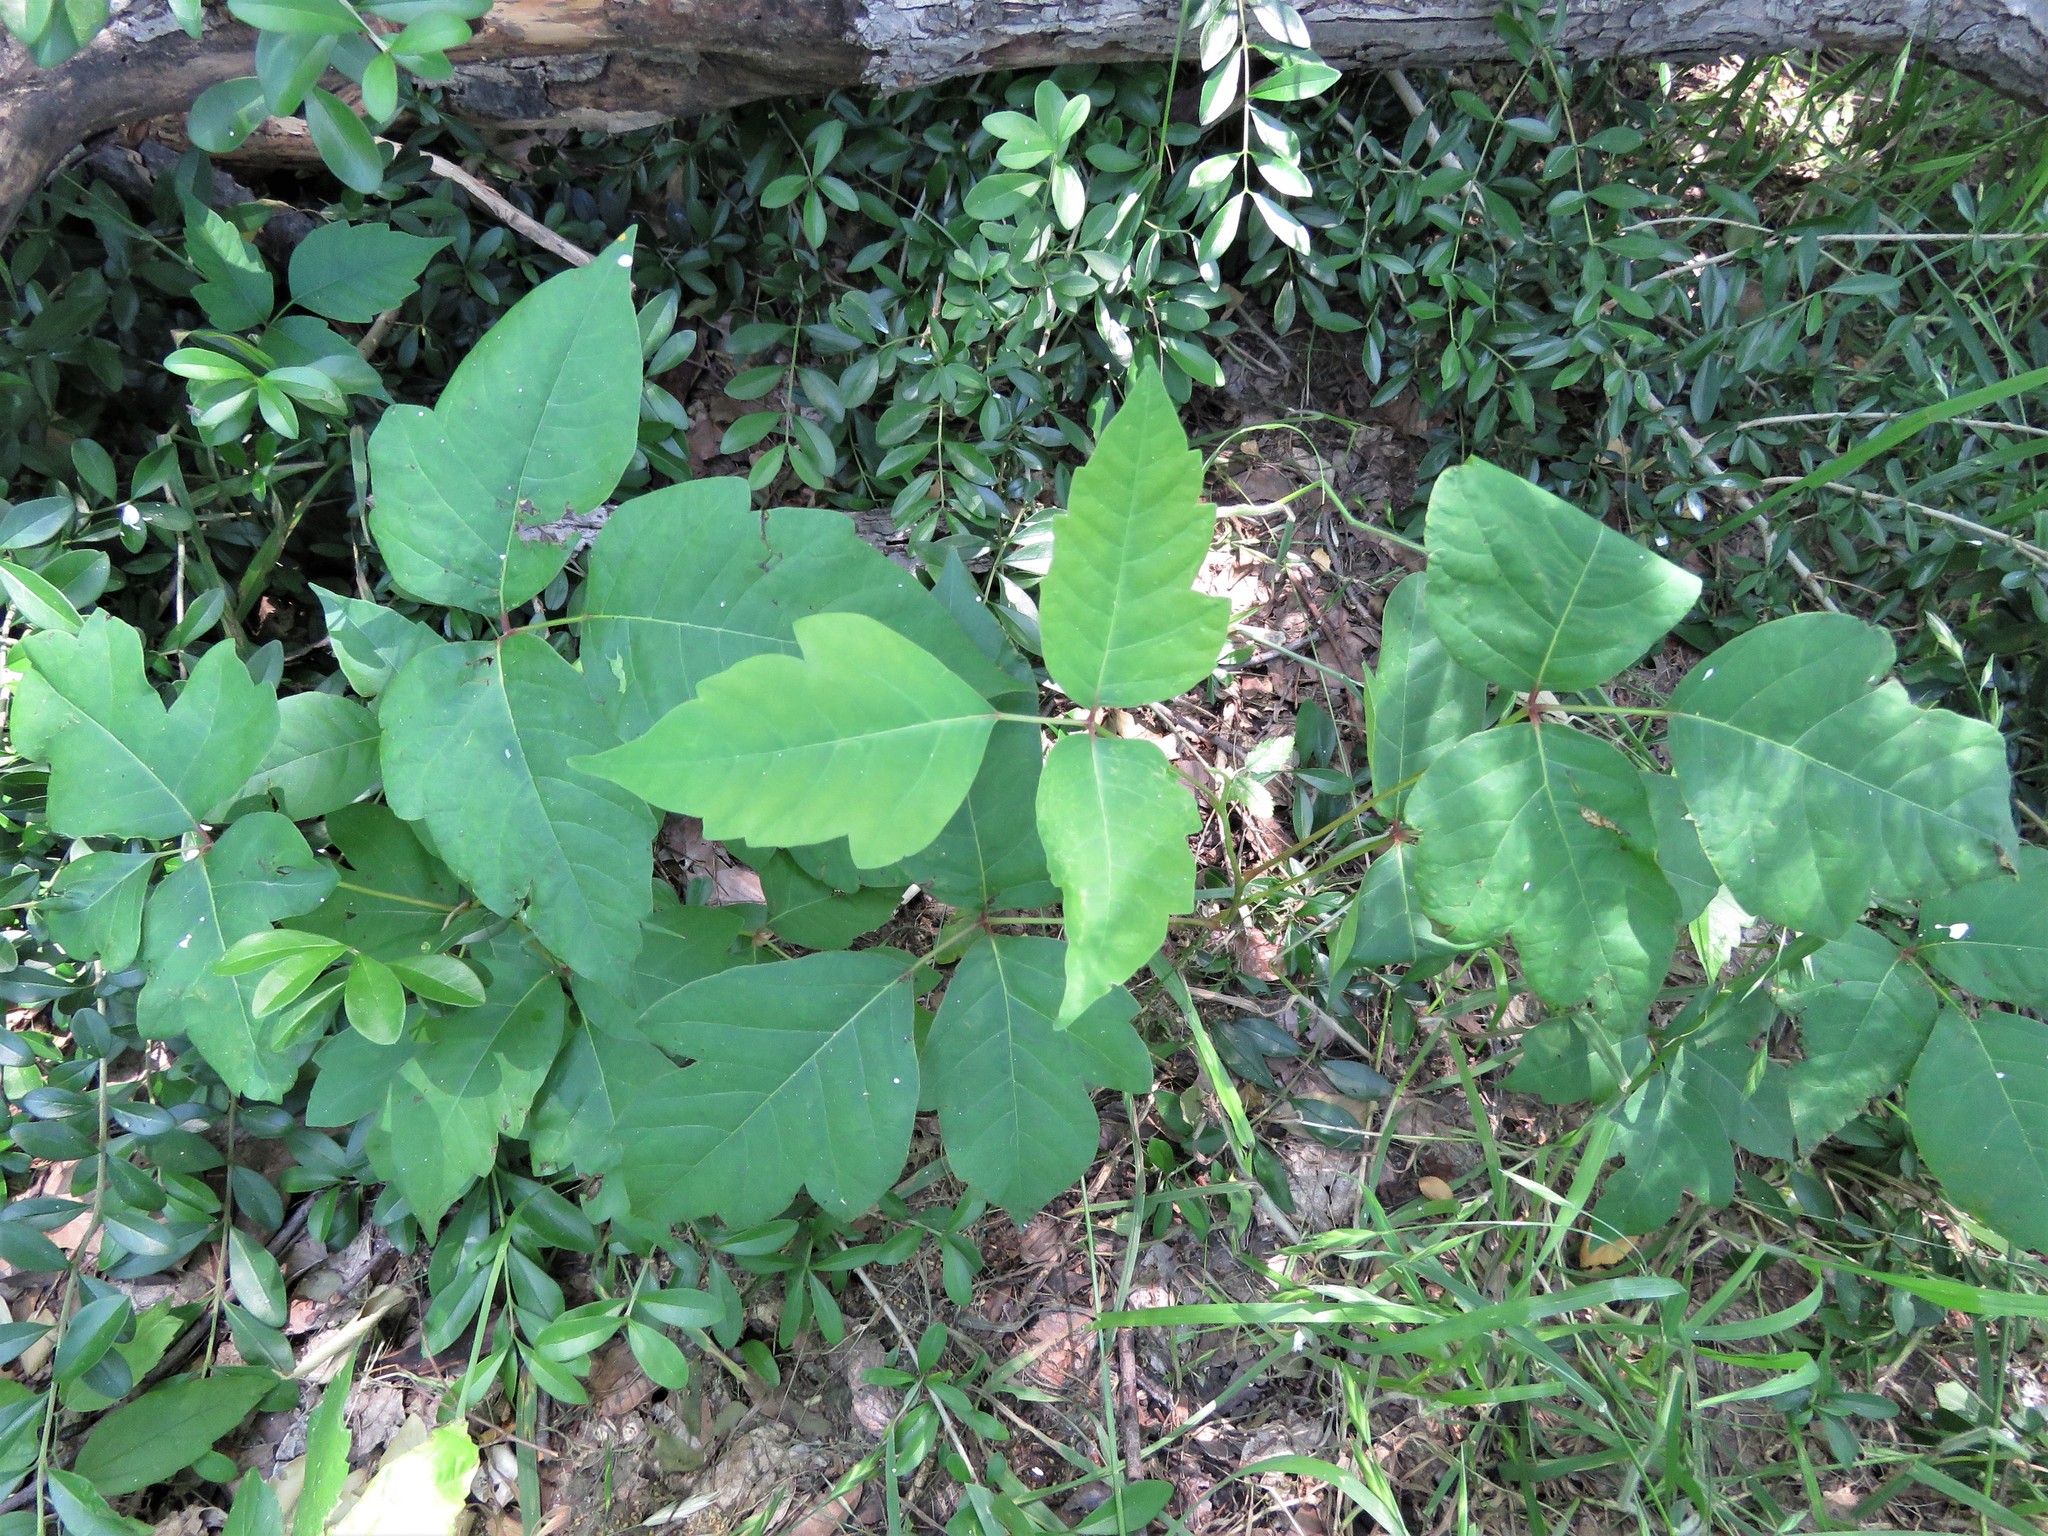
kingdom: Plantae
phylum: Tracheophyta
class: Magnoliopsida
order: Sapindales
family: Anacardiaceae
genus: Toxicodendron
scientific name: Toxicodendron radicans
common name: Poison ivy
